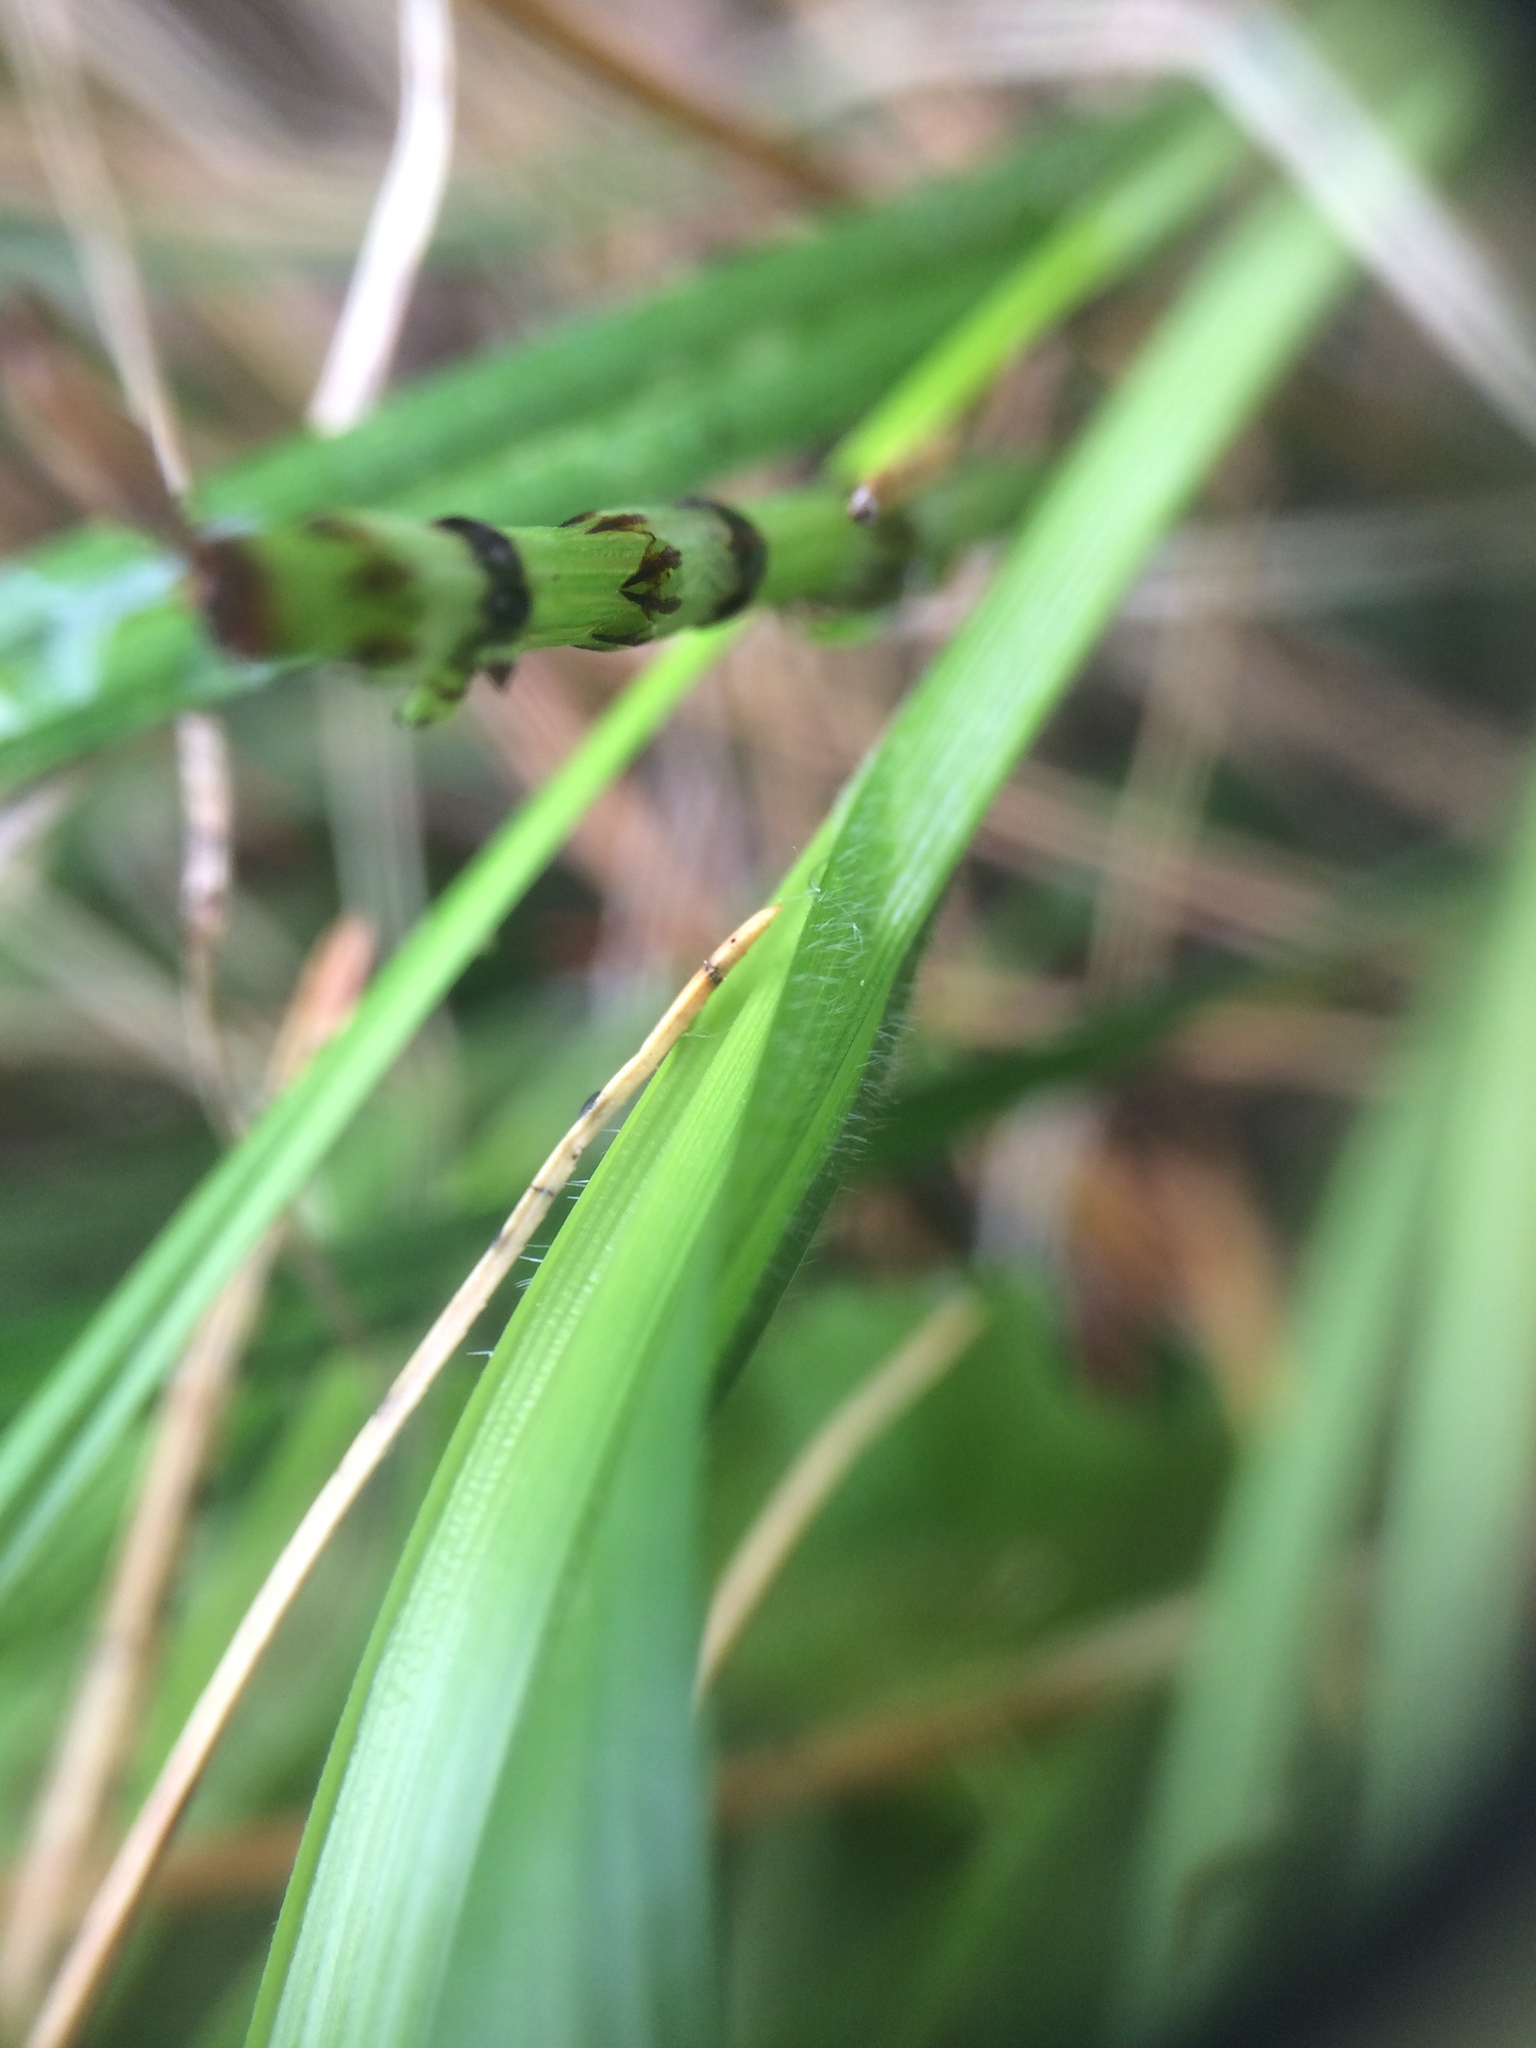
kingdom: Plantae
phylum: Tracheophyta
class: Liliopsida
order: Poales
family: Cyperaceae
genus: Carex
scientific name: Carex pallescens
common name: Pale sedge
